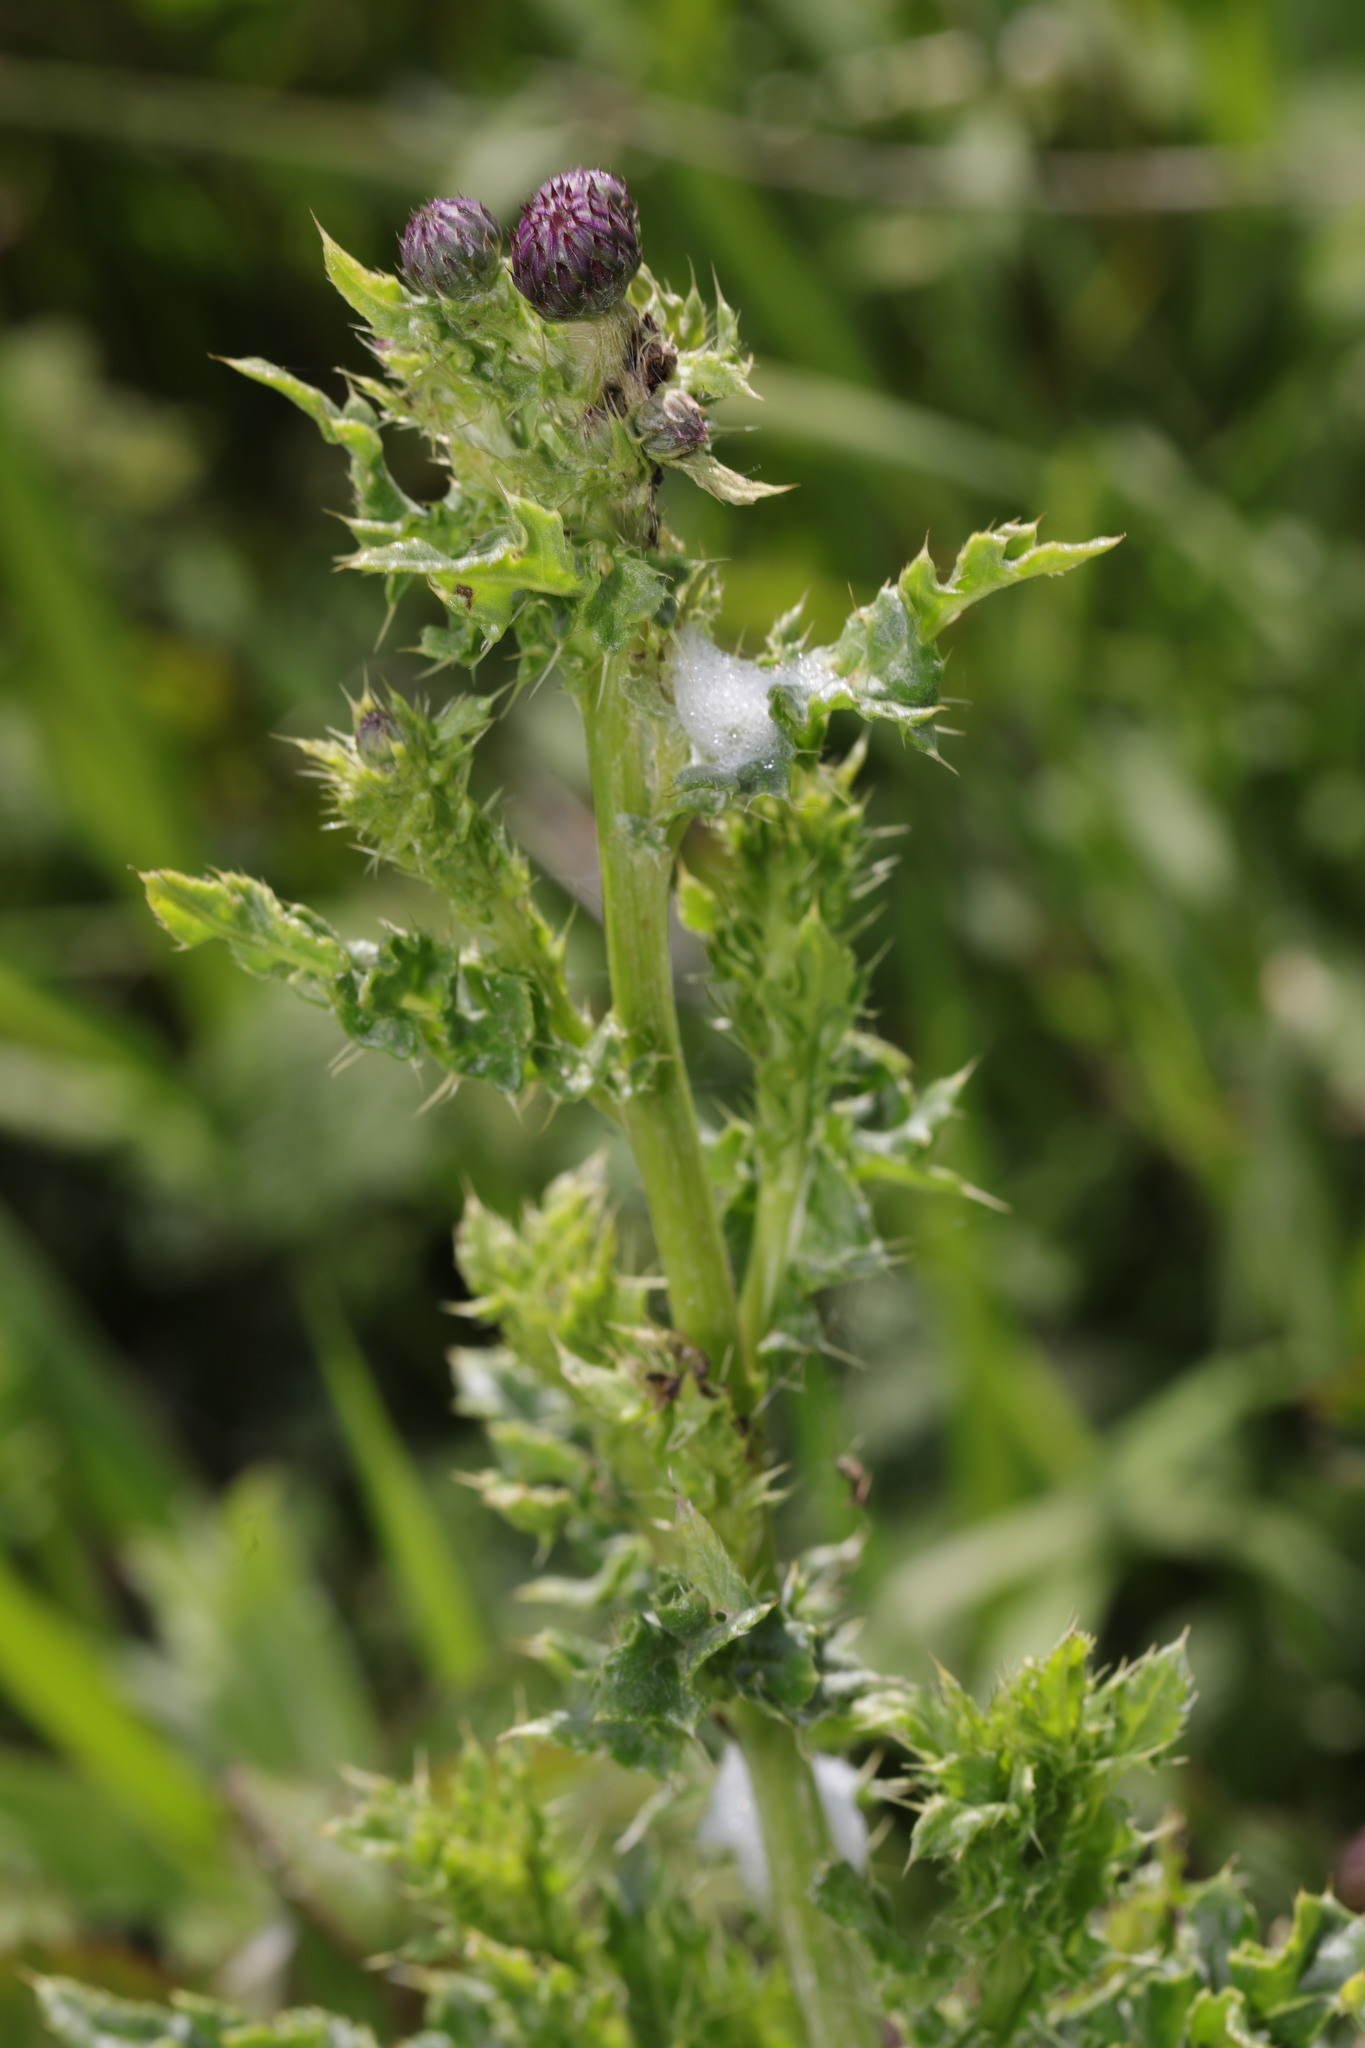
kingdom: Plantae
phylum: Tracheophyta
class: Magnoliopsida
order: Asterales
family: Asteraceae
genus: Cirsium
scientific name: Cirsium arvense
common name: Creeping thistle
